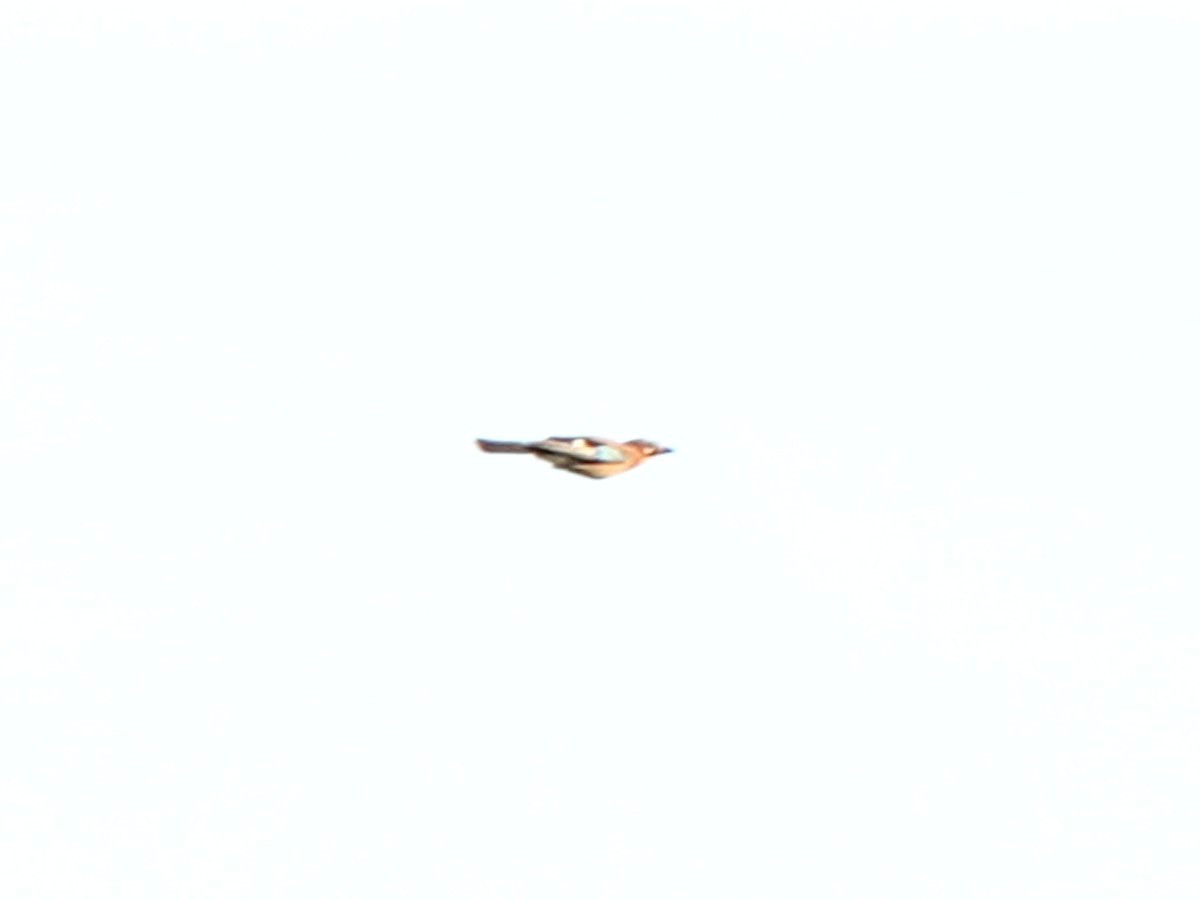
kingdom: Animalia
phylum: Chordata
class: Aves
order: Passeriformes
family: Corvidae
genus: Garrulus
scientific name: Garrulus glandarius
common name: Eurasian jay
